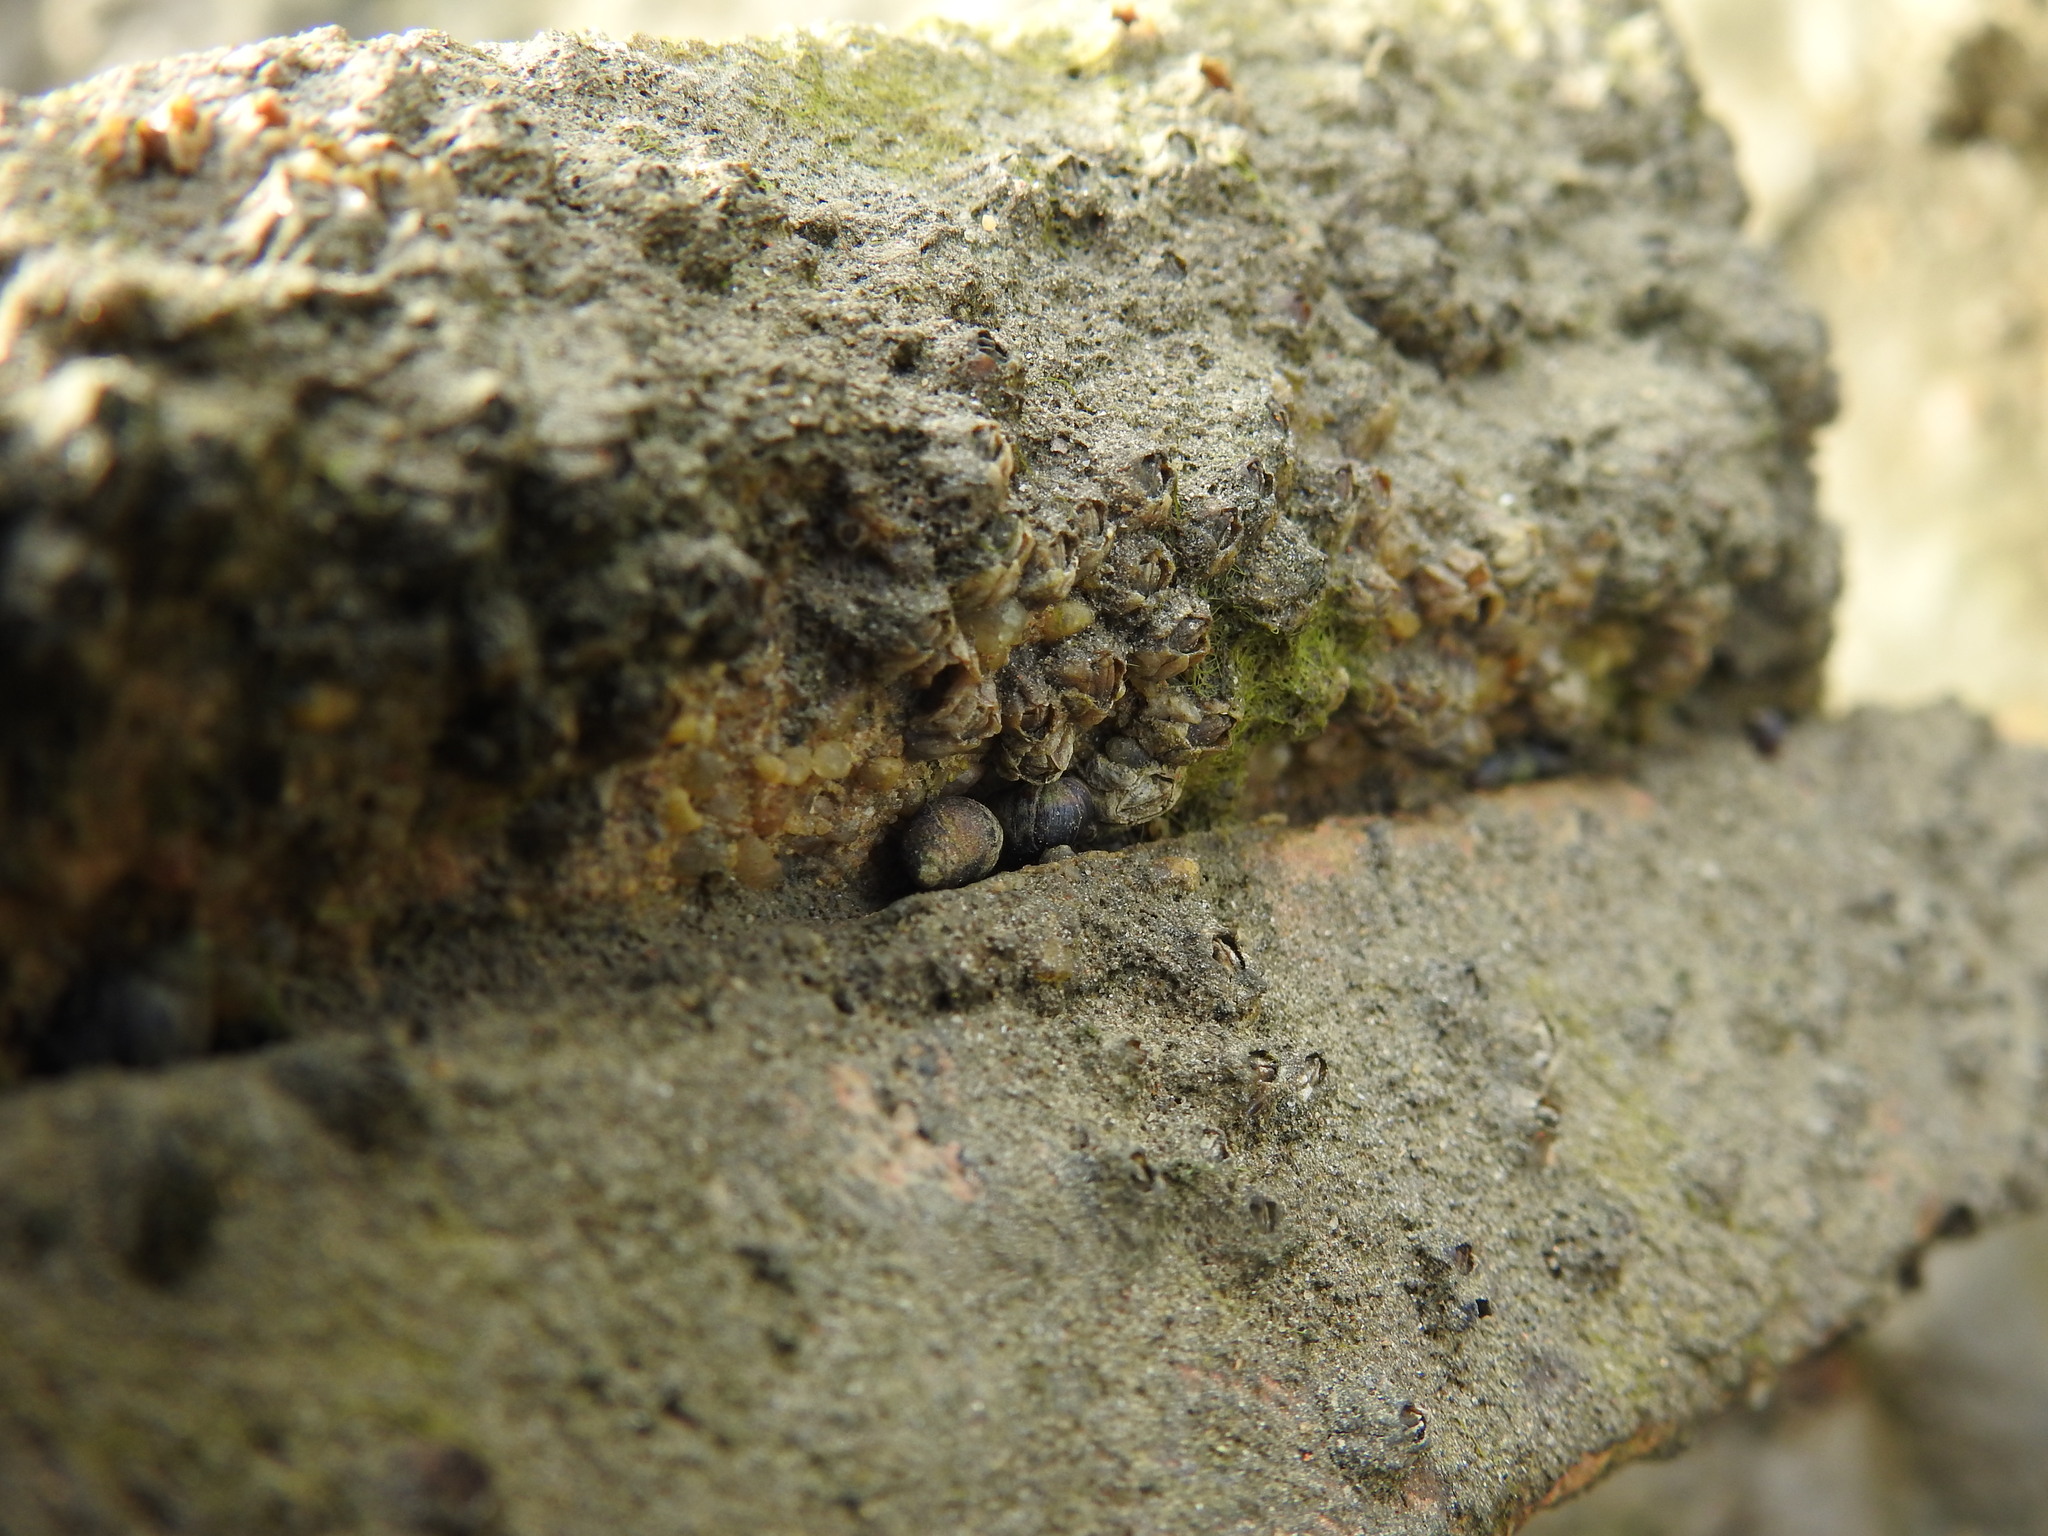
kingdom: Animalia
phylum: Mollusca
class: Gastropoda
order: Littorinimorpha
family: Littorinidae
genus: Melarhaphe
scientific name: Melarhaphe neritoides
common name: Small periwinkle
